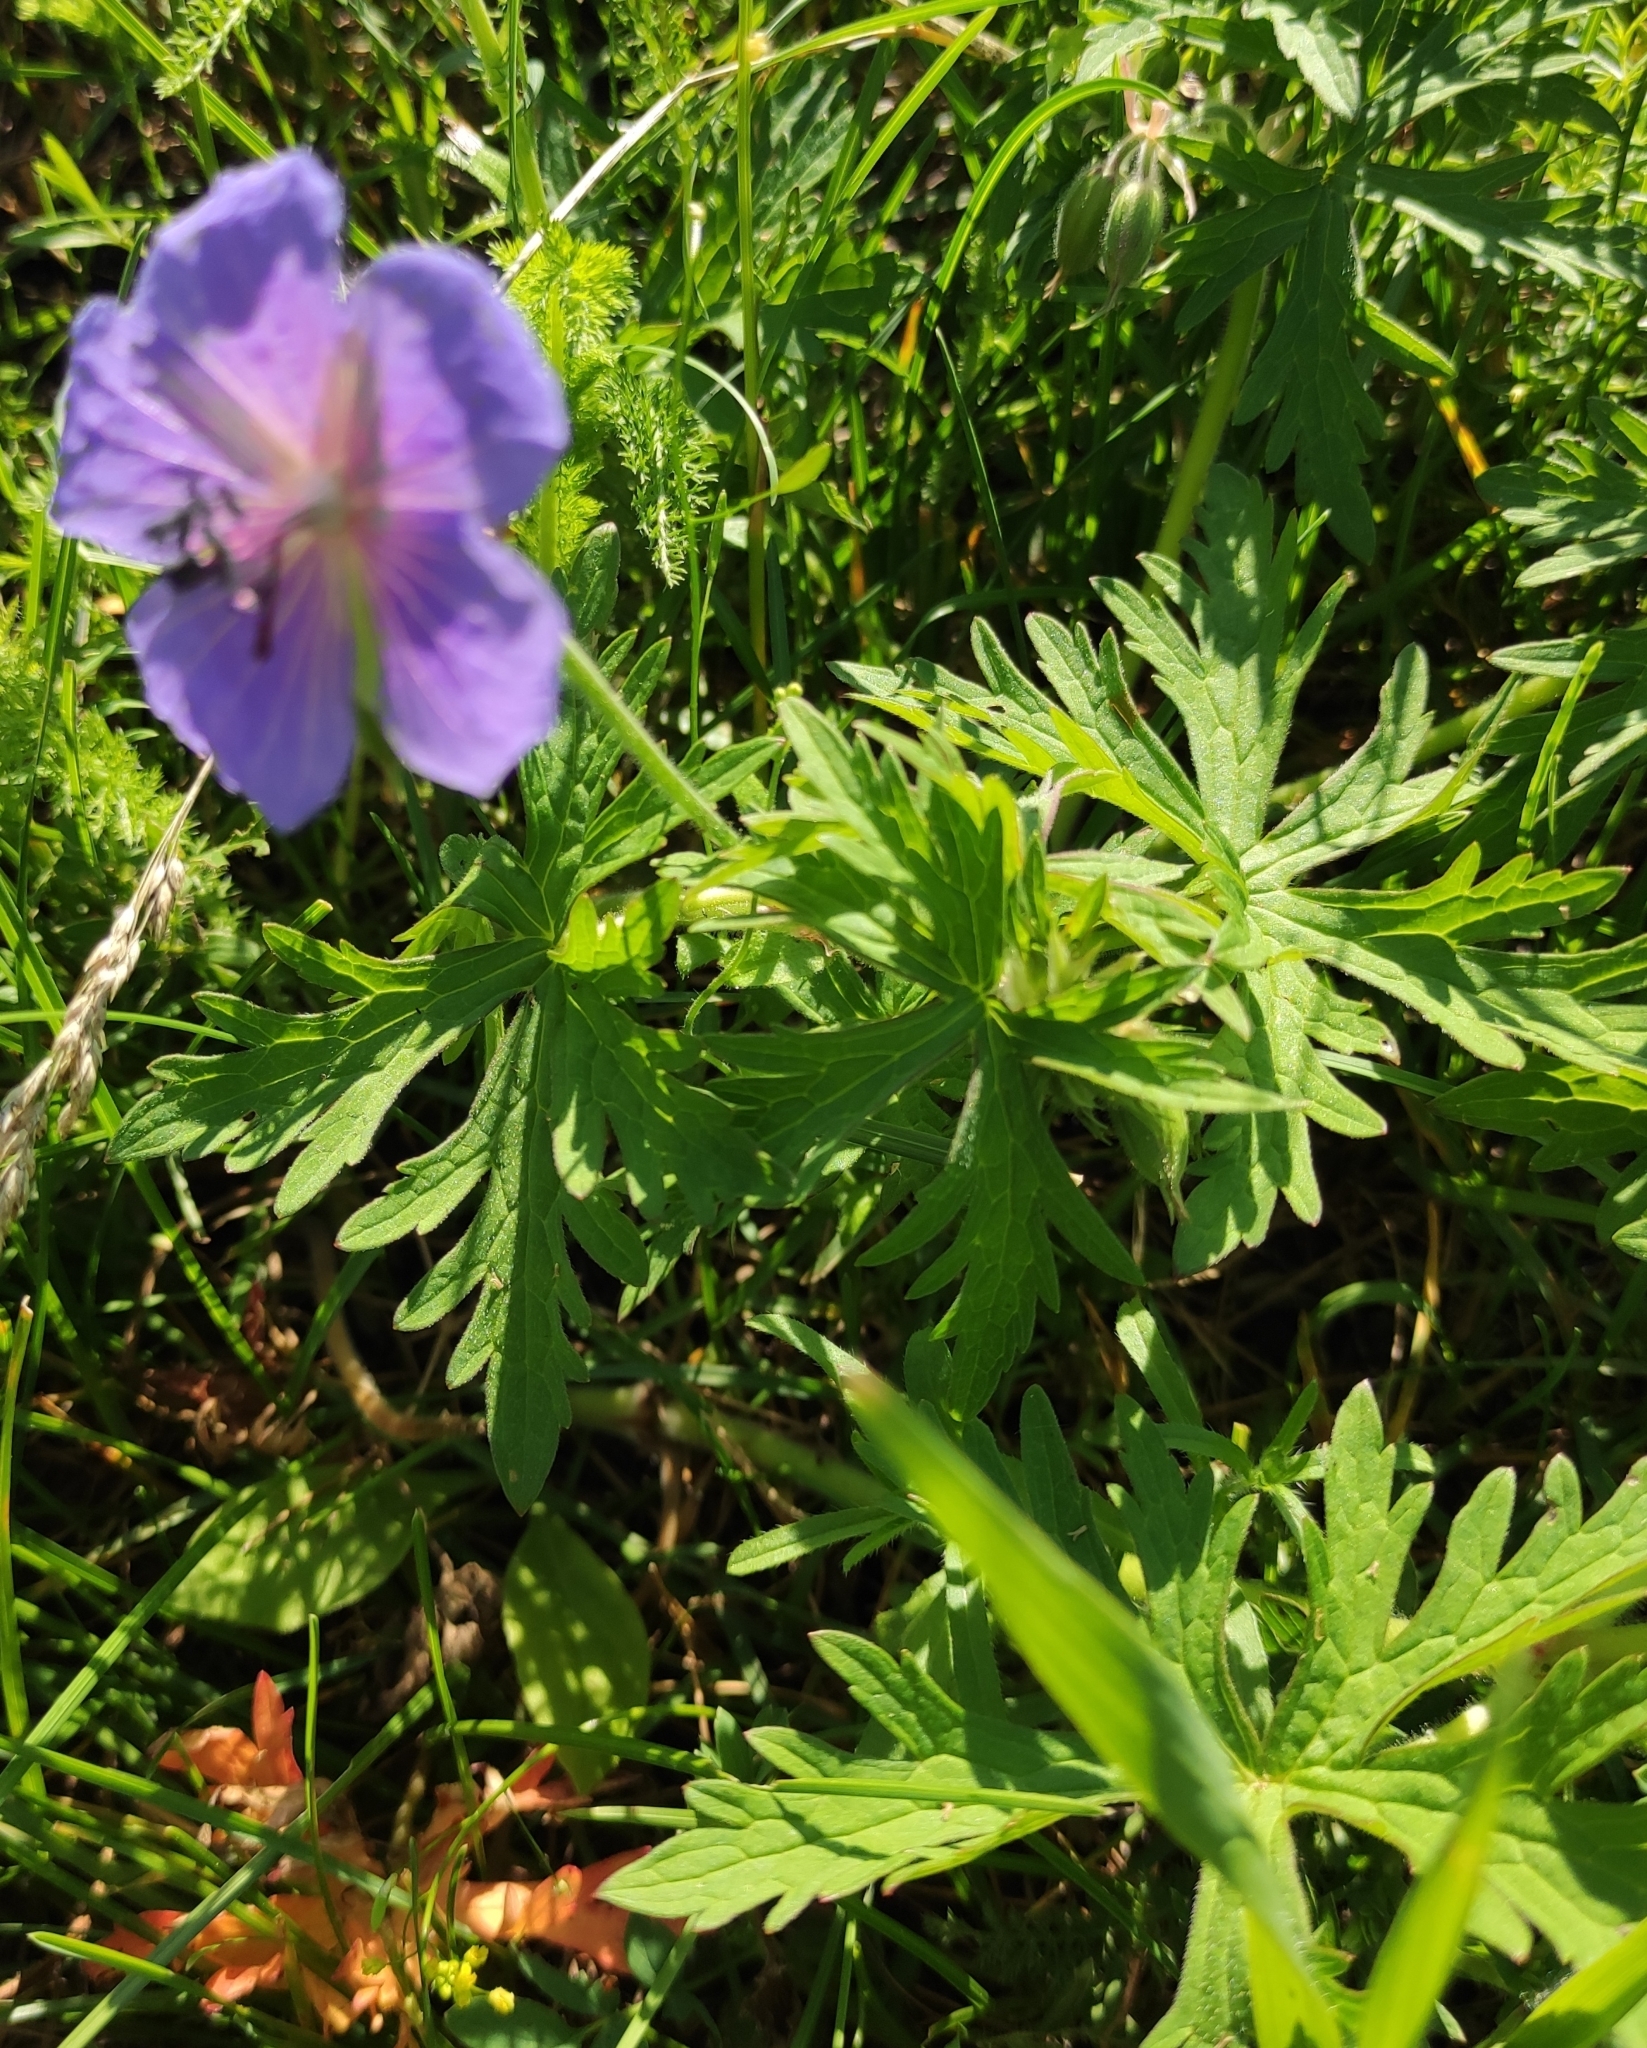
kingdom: Plantae
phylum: Tracheophyta
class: Magnoliopsida
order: Geraniales
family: Geraniaceae
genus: Geranium
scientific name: Geranium pratense
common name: Meadow crane's-bill
